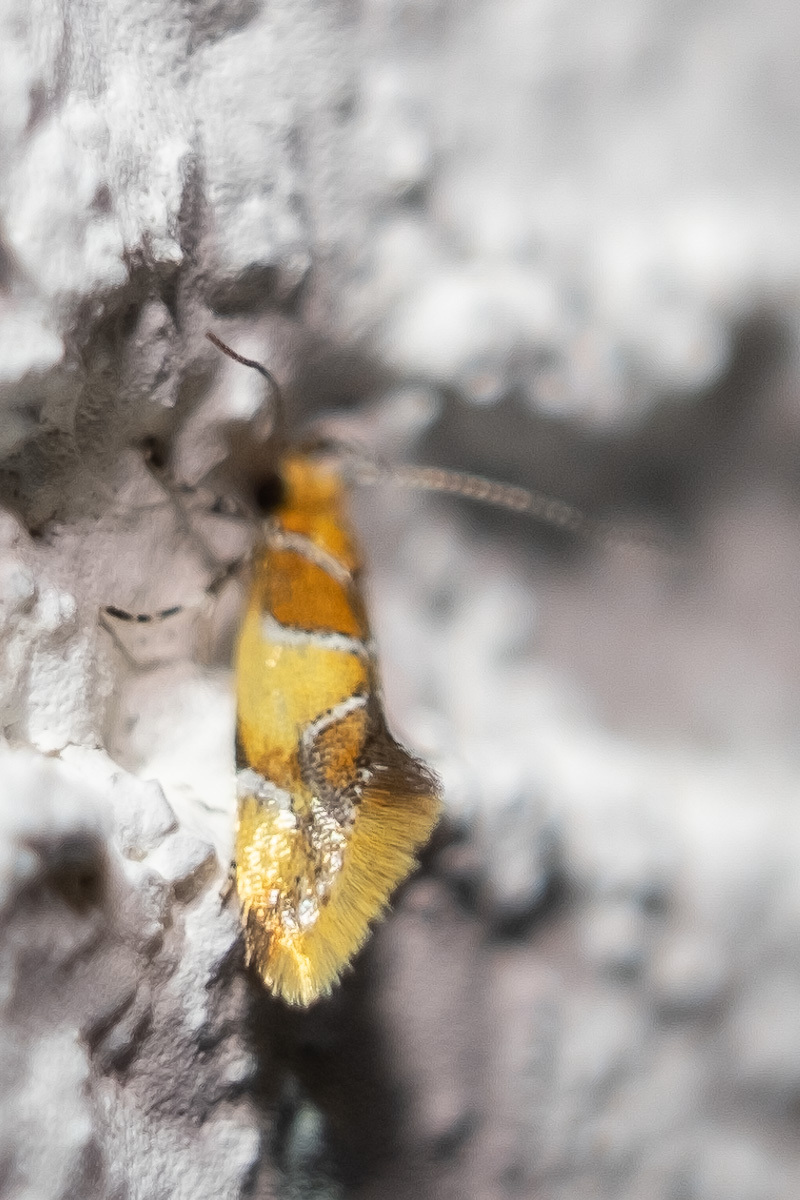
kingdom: Animalia
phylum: Arthropoda
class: Insecta
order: Lepidoptera
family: Oecophoridae
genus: Callima
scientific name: Callima argenticinctella
